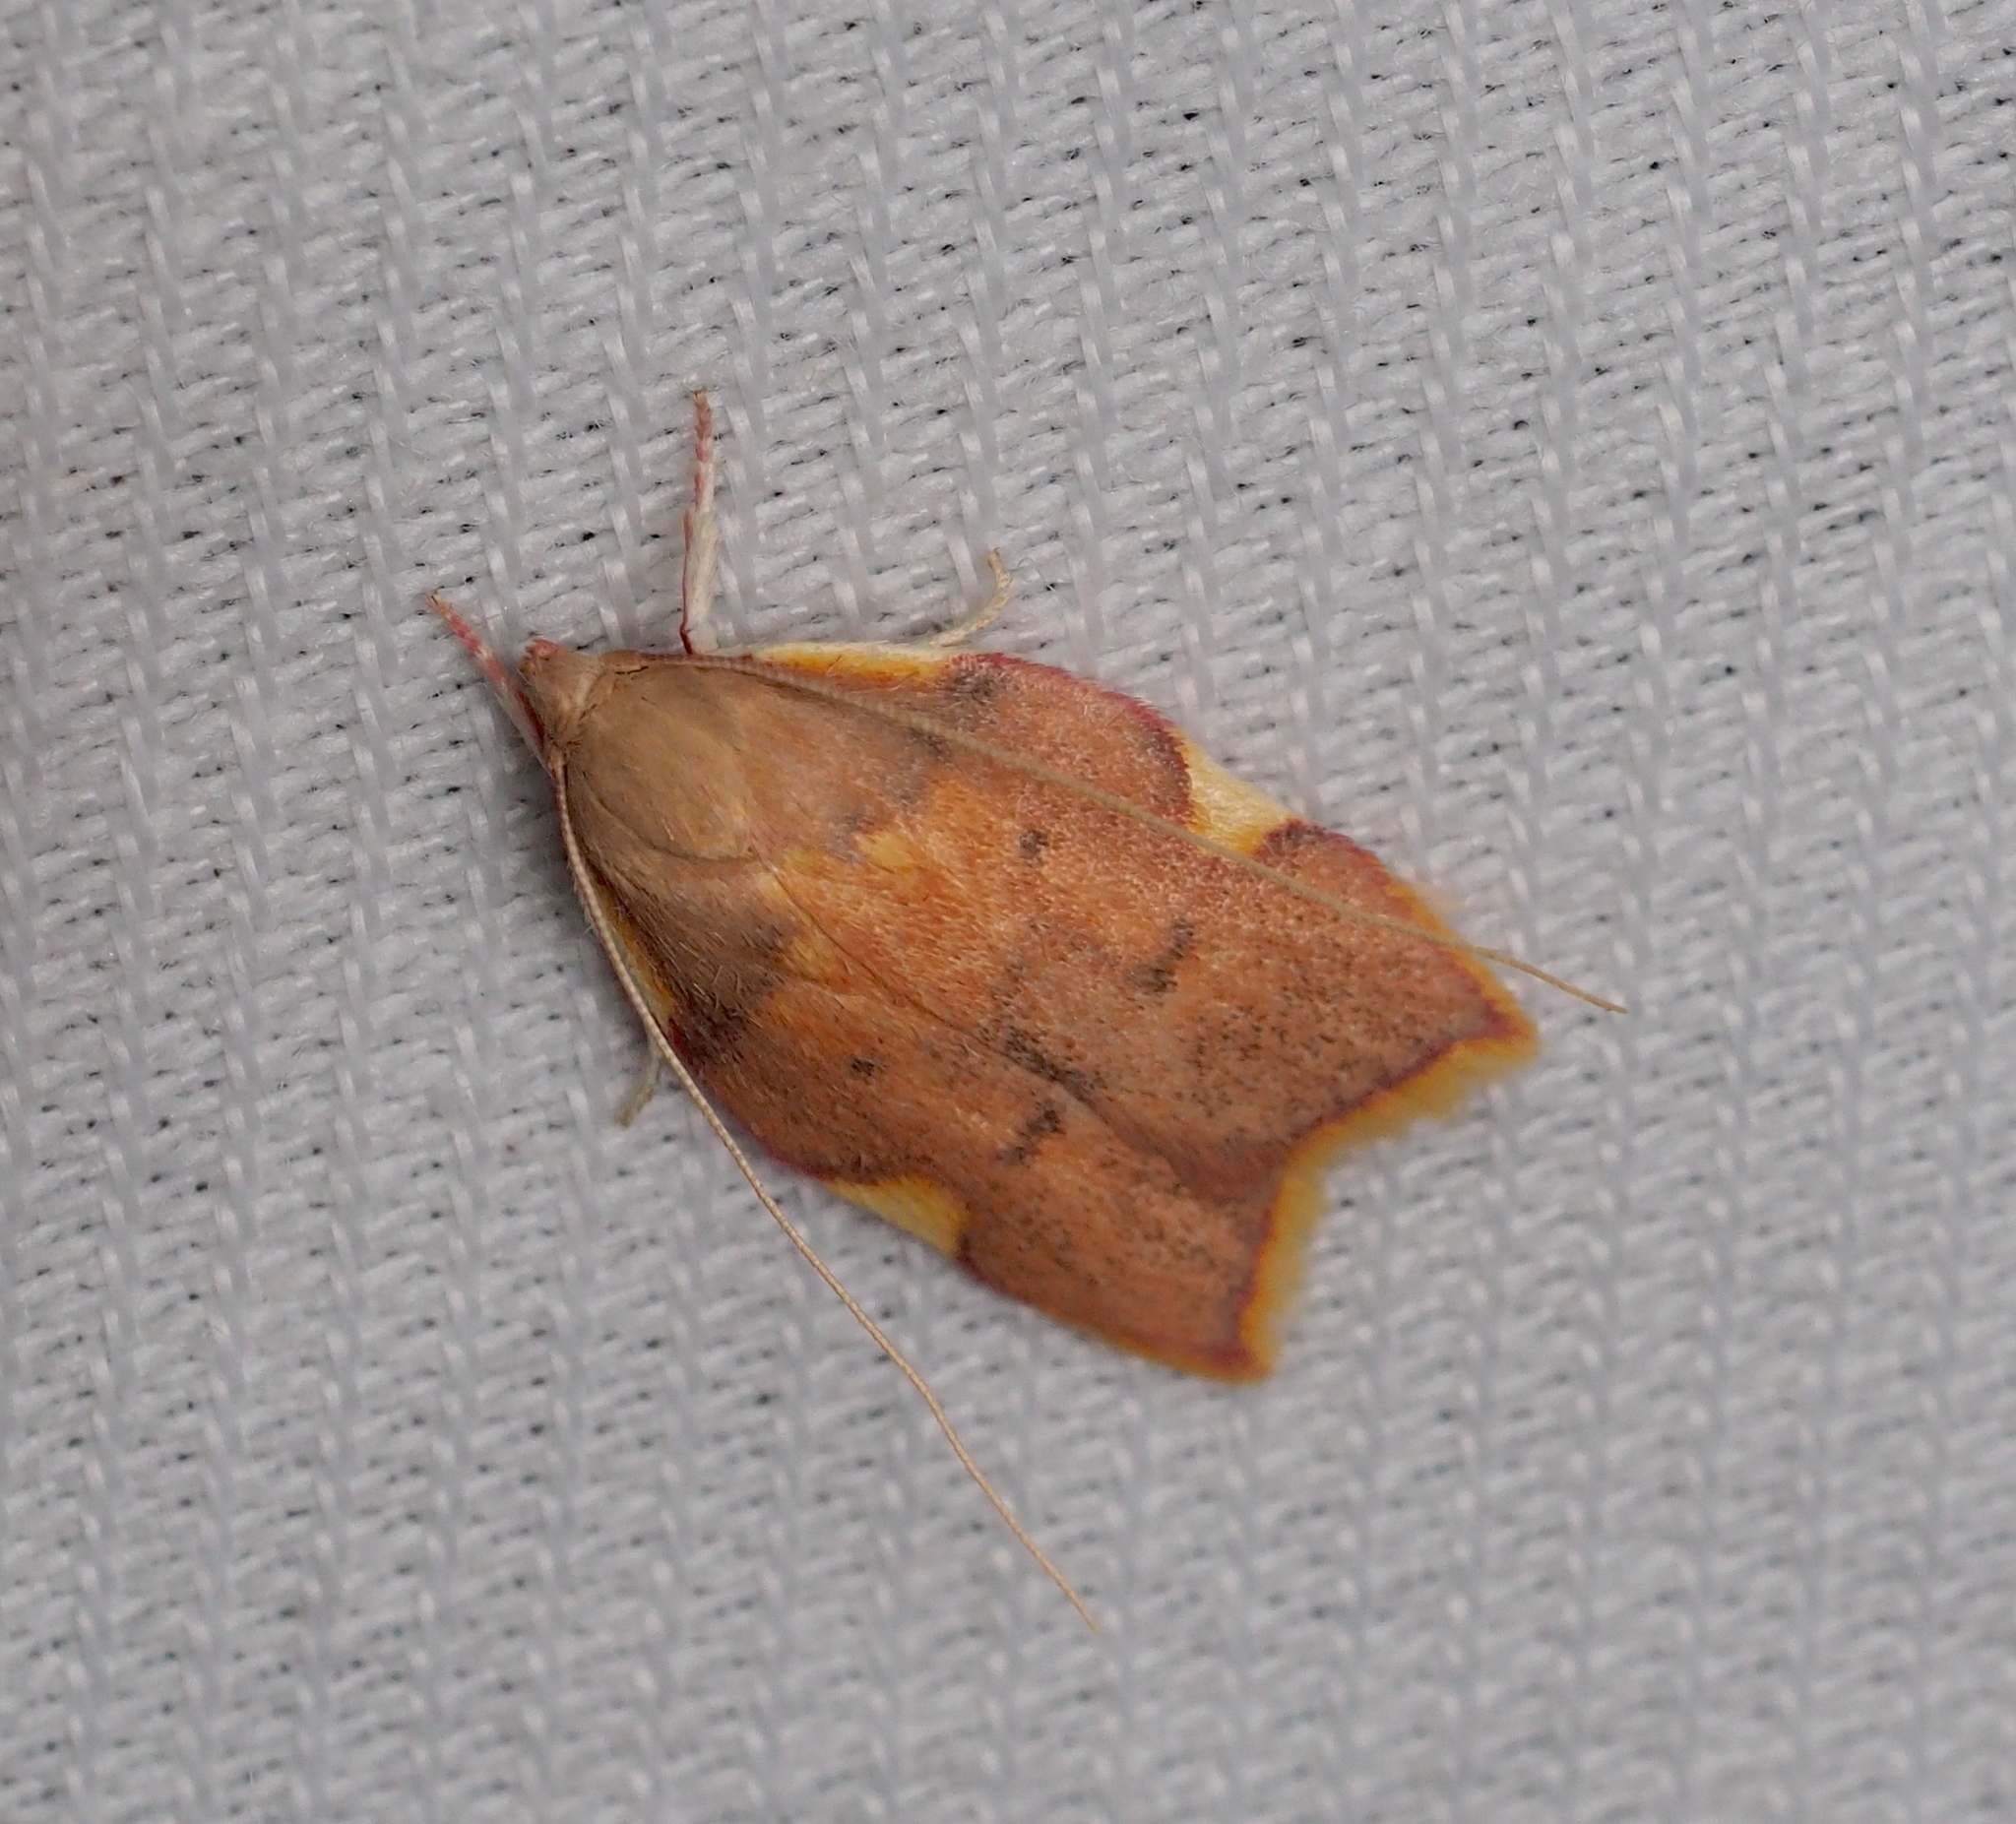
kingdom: Animalia
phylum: Arthropoda
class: Insecta
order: Lepidoptera
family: Peleopodidae
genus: Carcina
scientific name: Carcina quercana
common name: Moth
